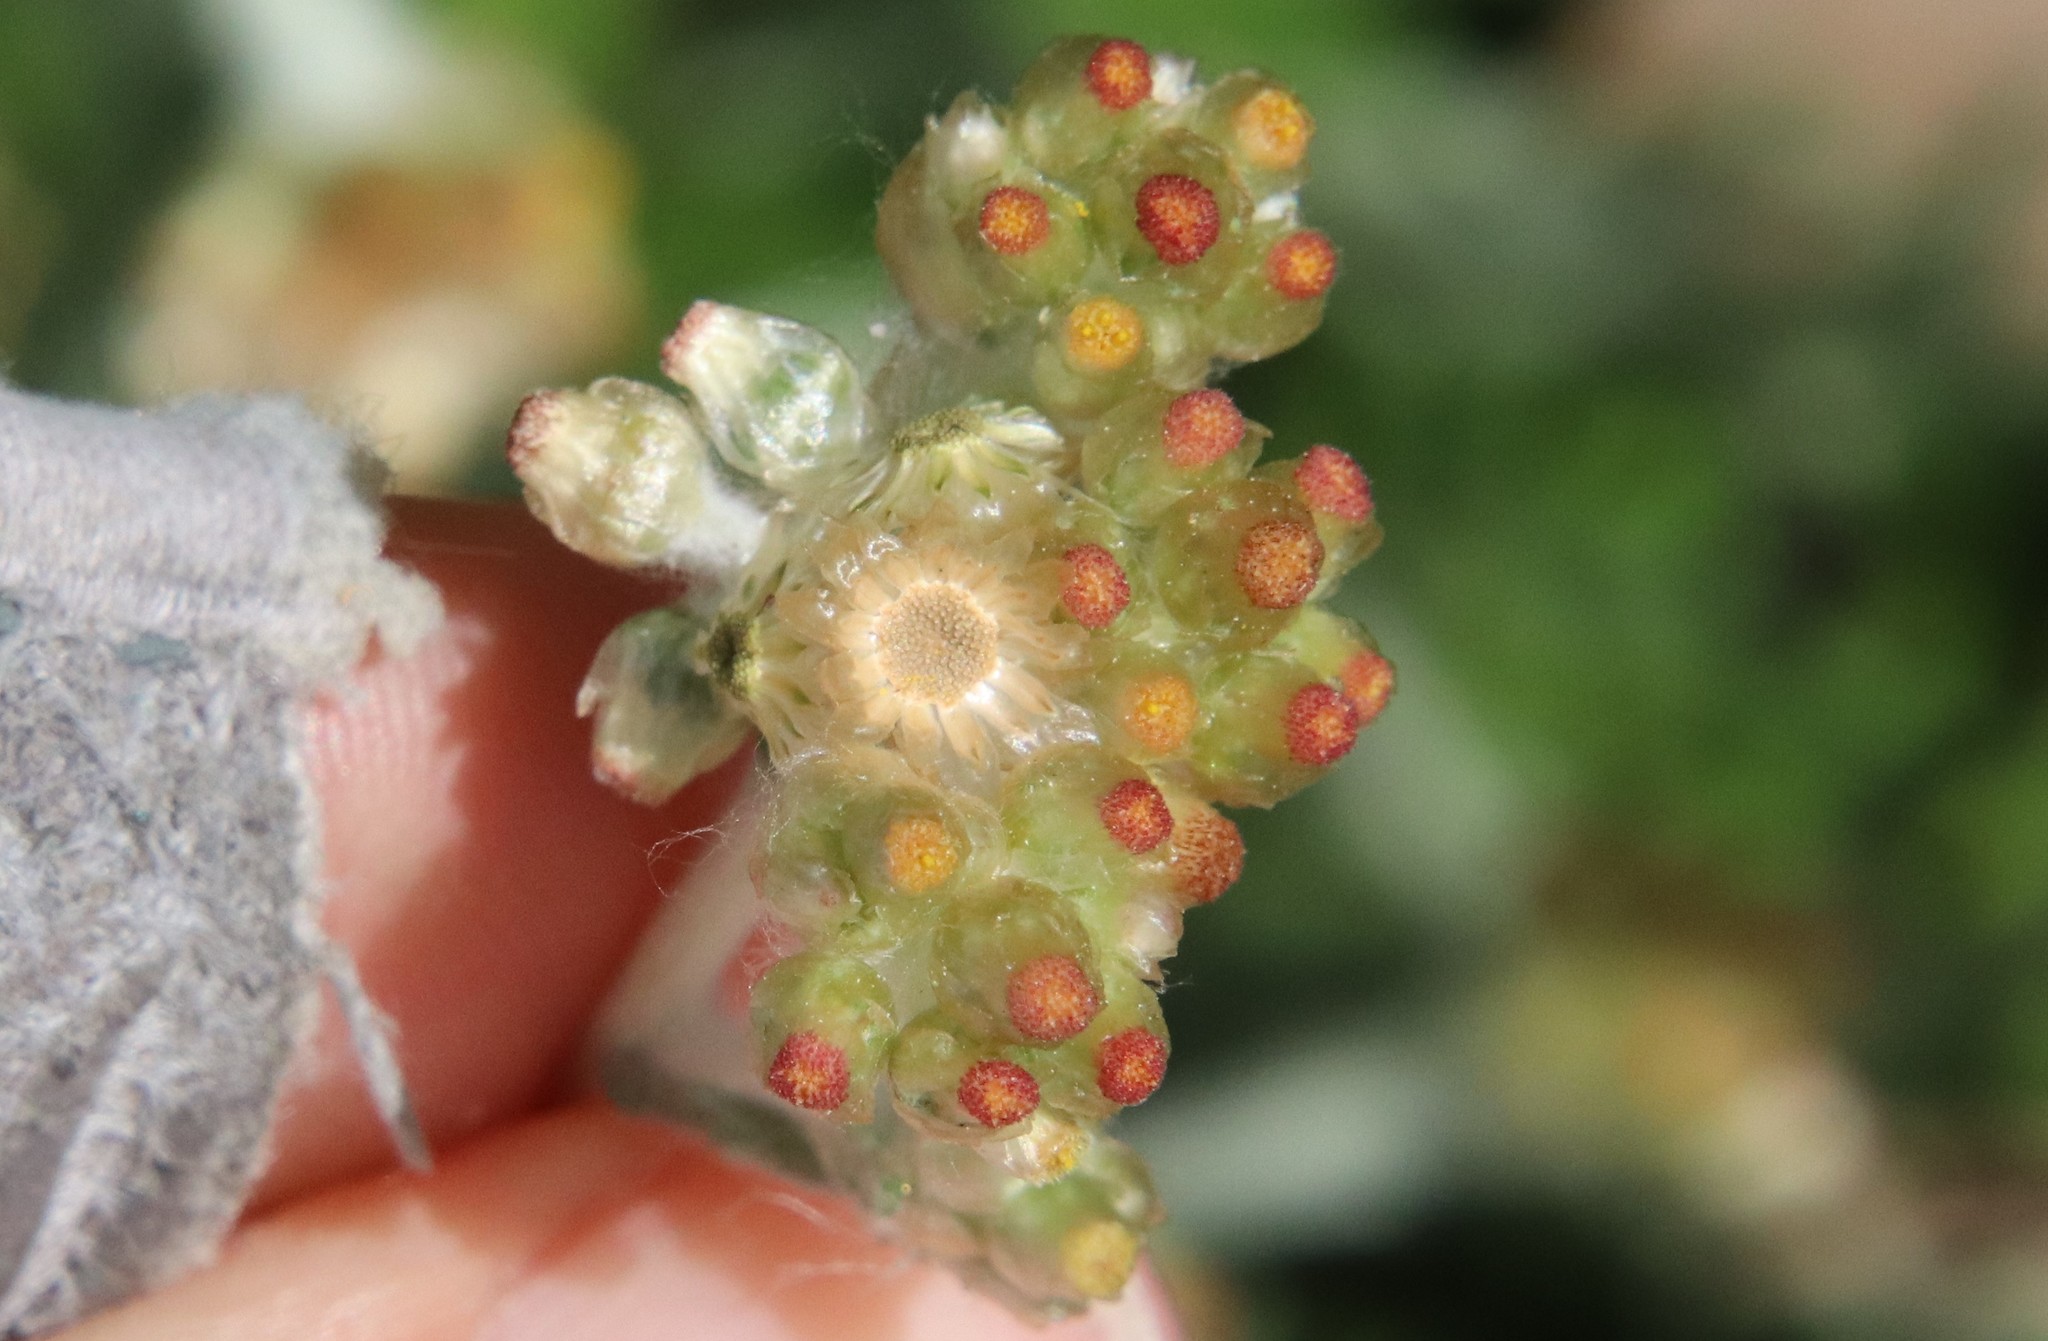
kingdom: Plantae
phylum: Tracheophyta
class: Magnoliopsida
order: Asterales
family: Asteraceae
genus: Helichrysum
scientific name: Helichrysum luteoalbum
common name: Daisy
